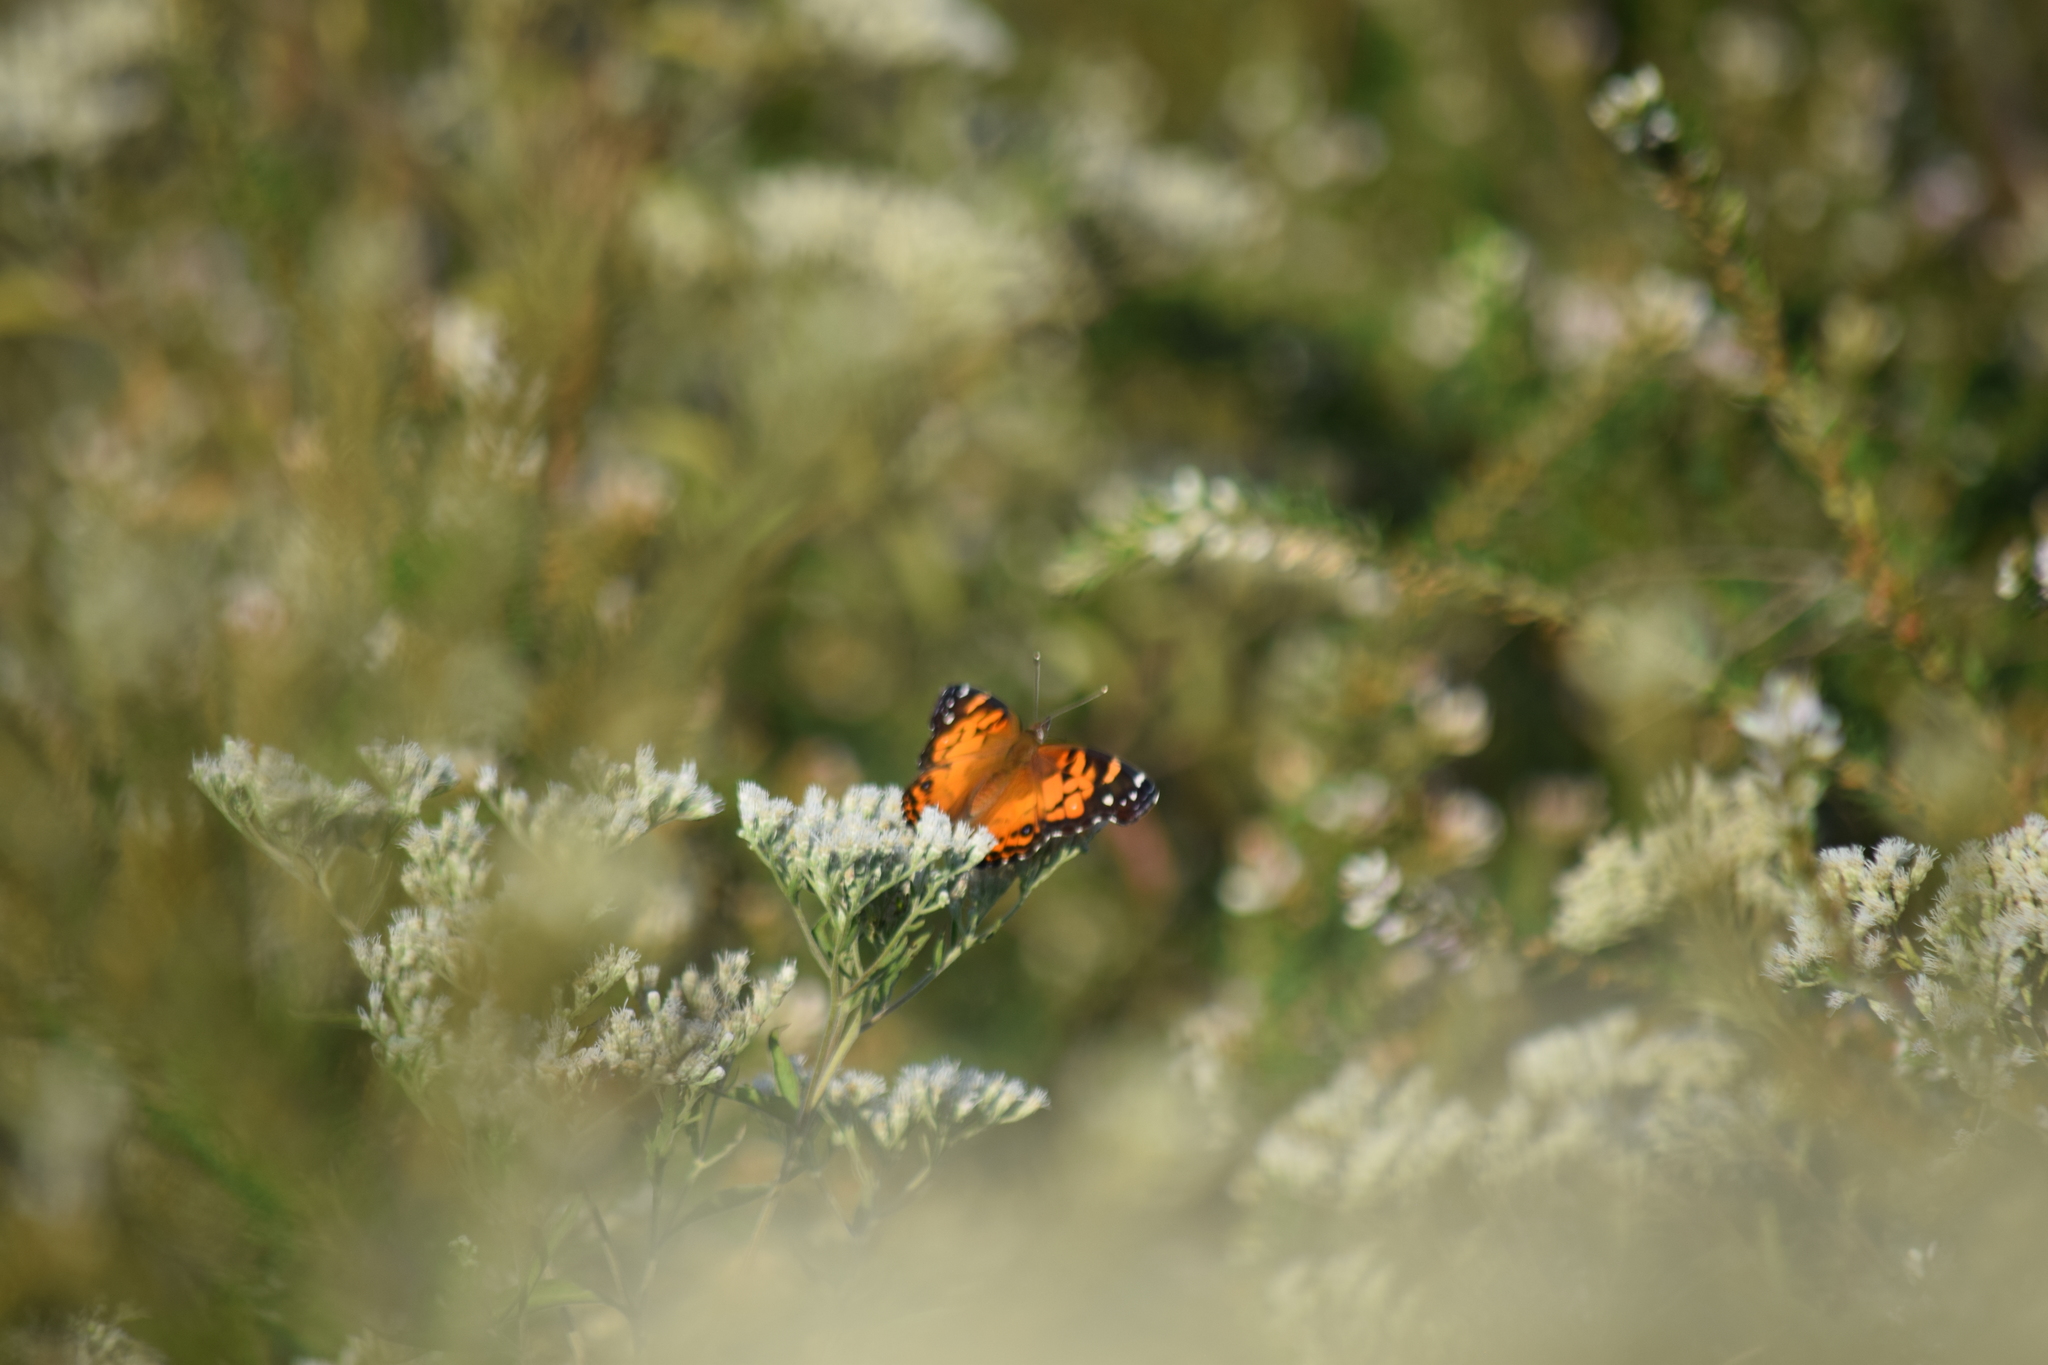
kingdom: Animalia
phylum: Arthropoda
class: Insecta
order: Lepidoptera
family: Nymphalidae
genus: Vanessa
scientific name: Vanessa virginiensis
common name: American lady
